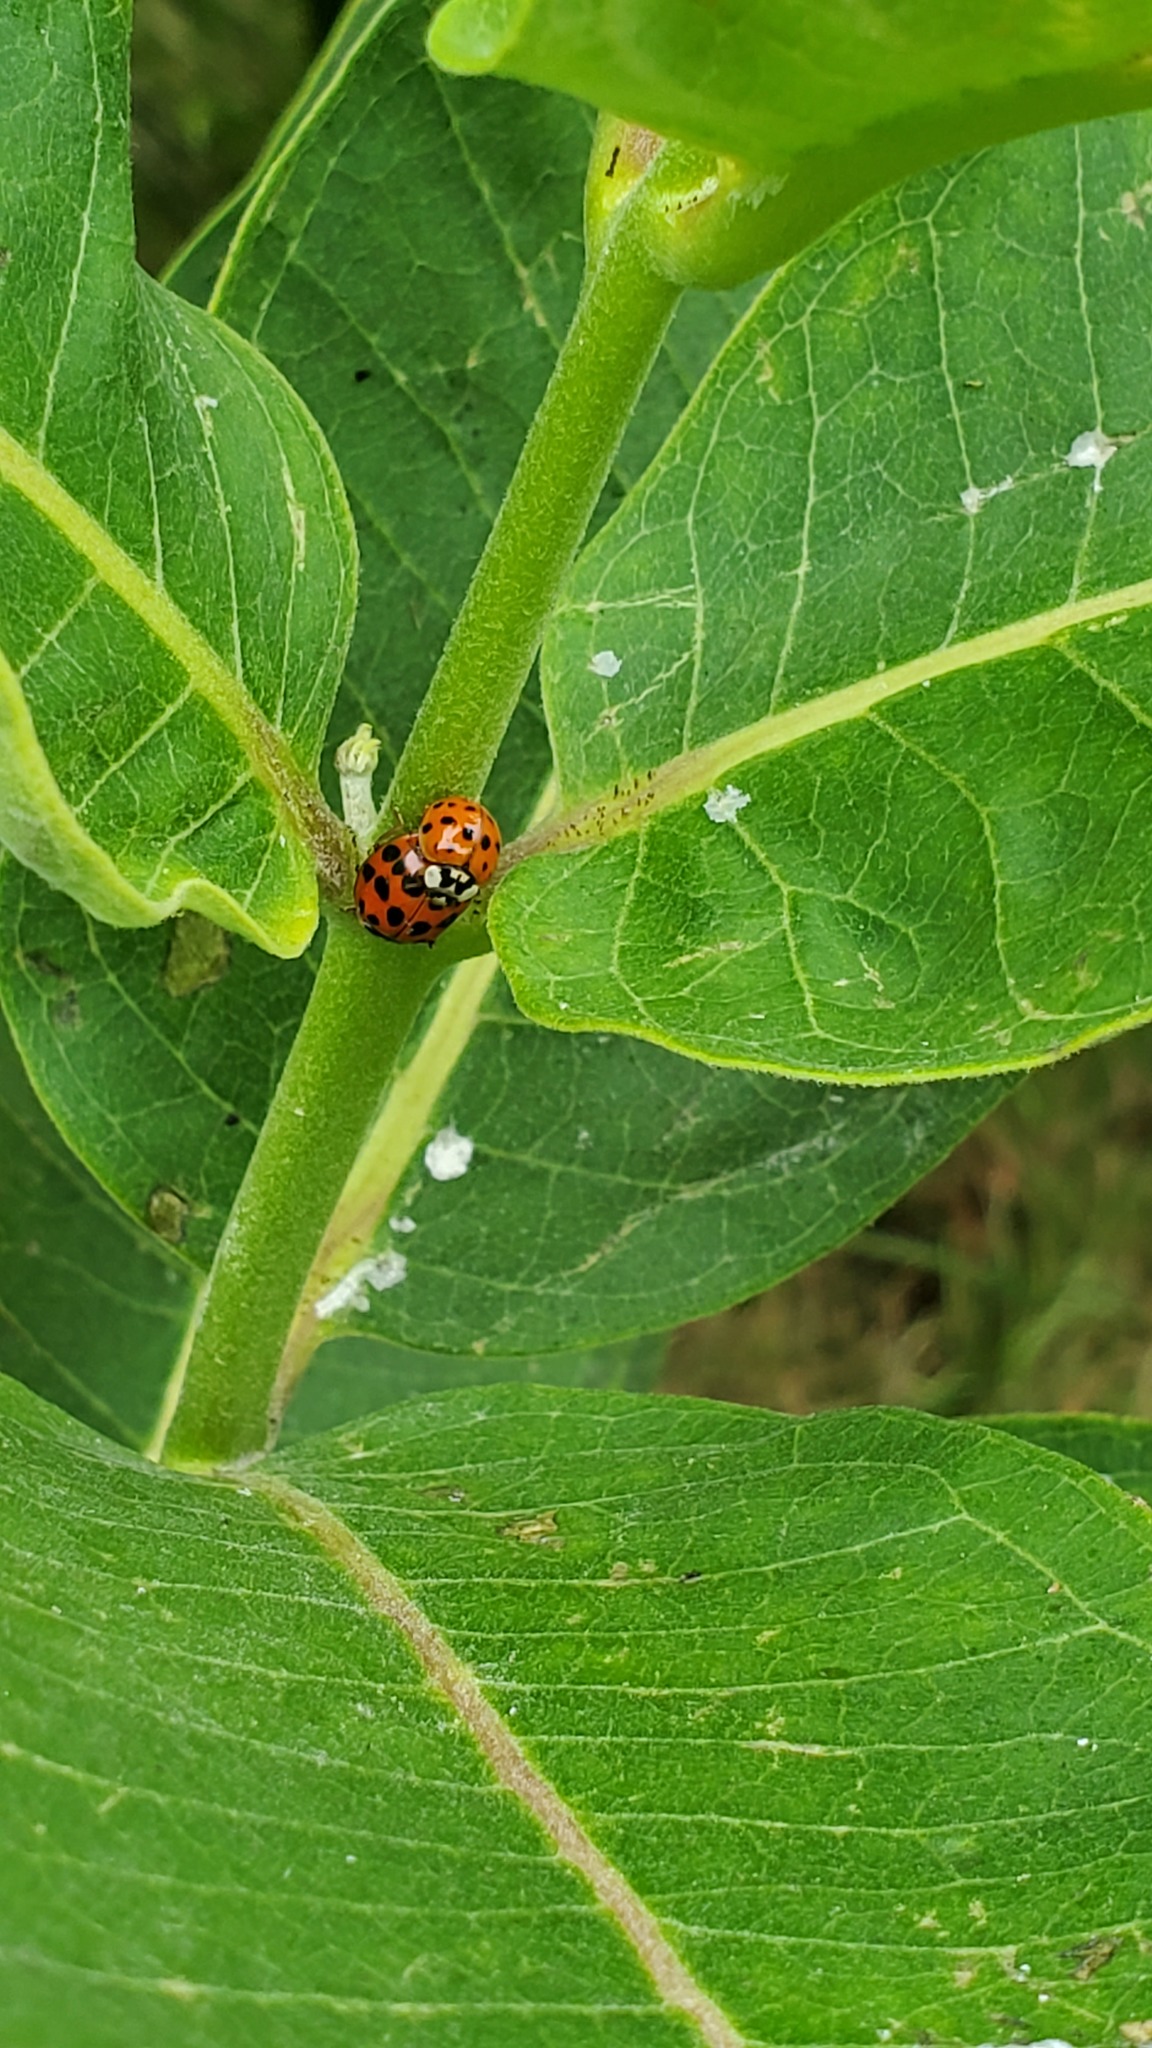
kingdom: Animalia
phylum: Arthropoda
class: Insecta
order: Coleoptera
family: Coccinellidae
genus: Harmonia
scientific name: Harmonia axyridis
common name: Harlequin ladybird
